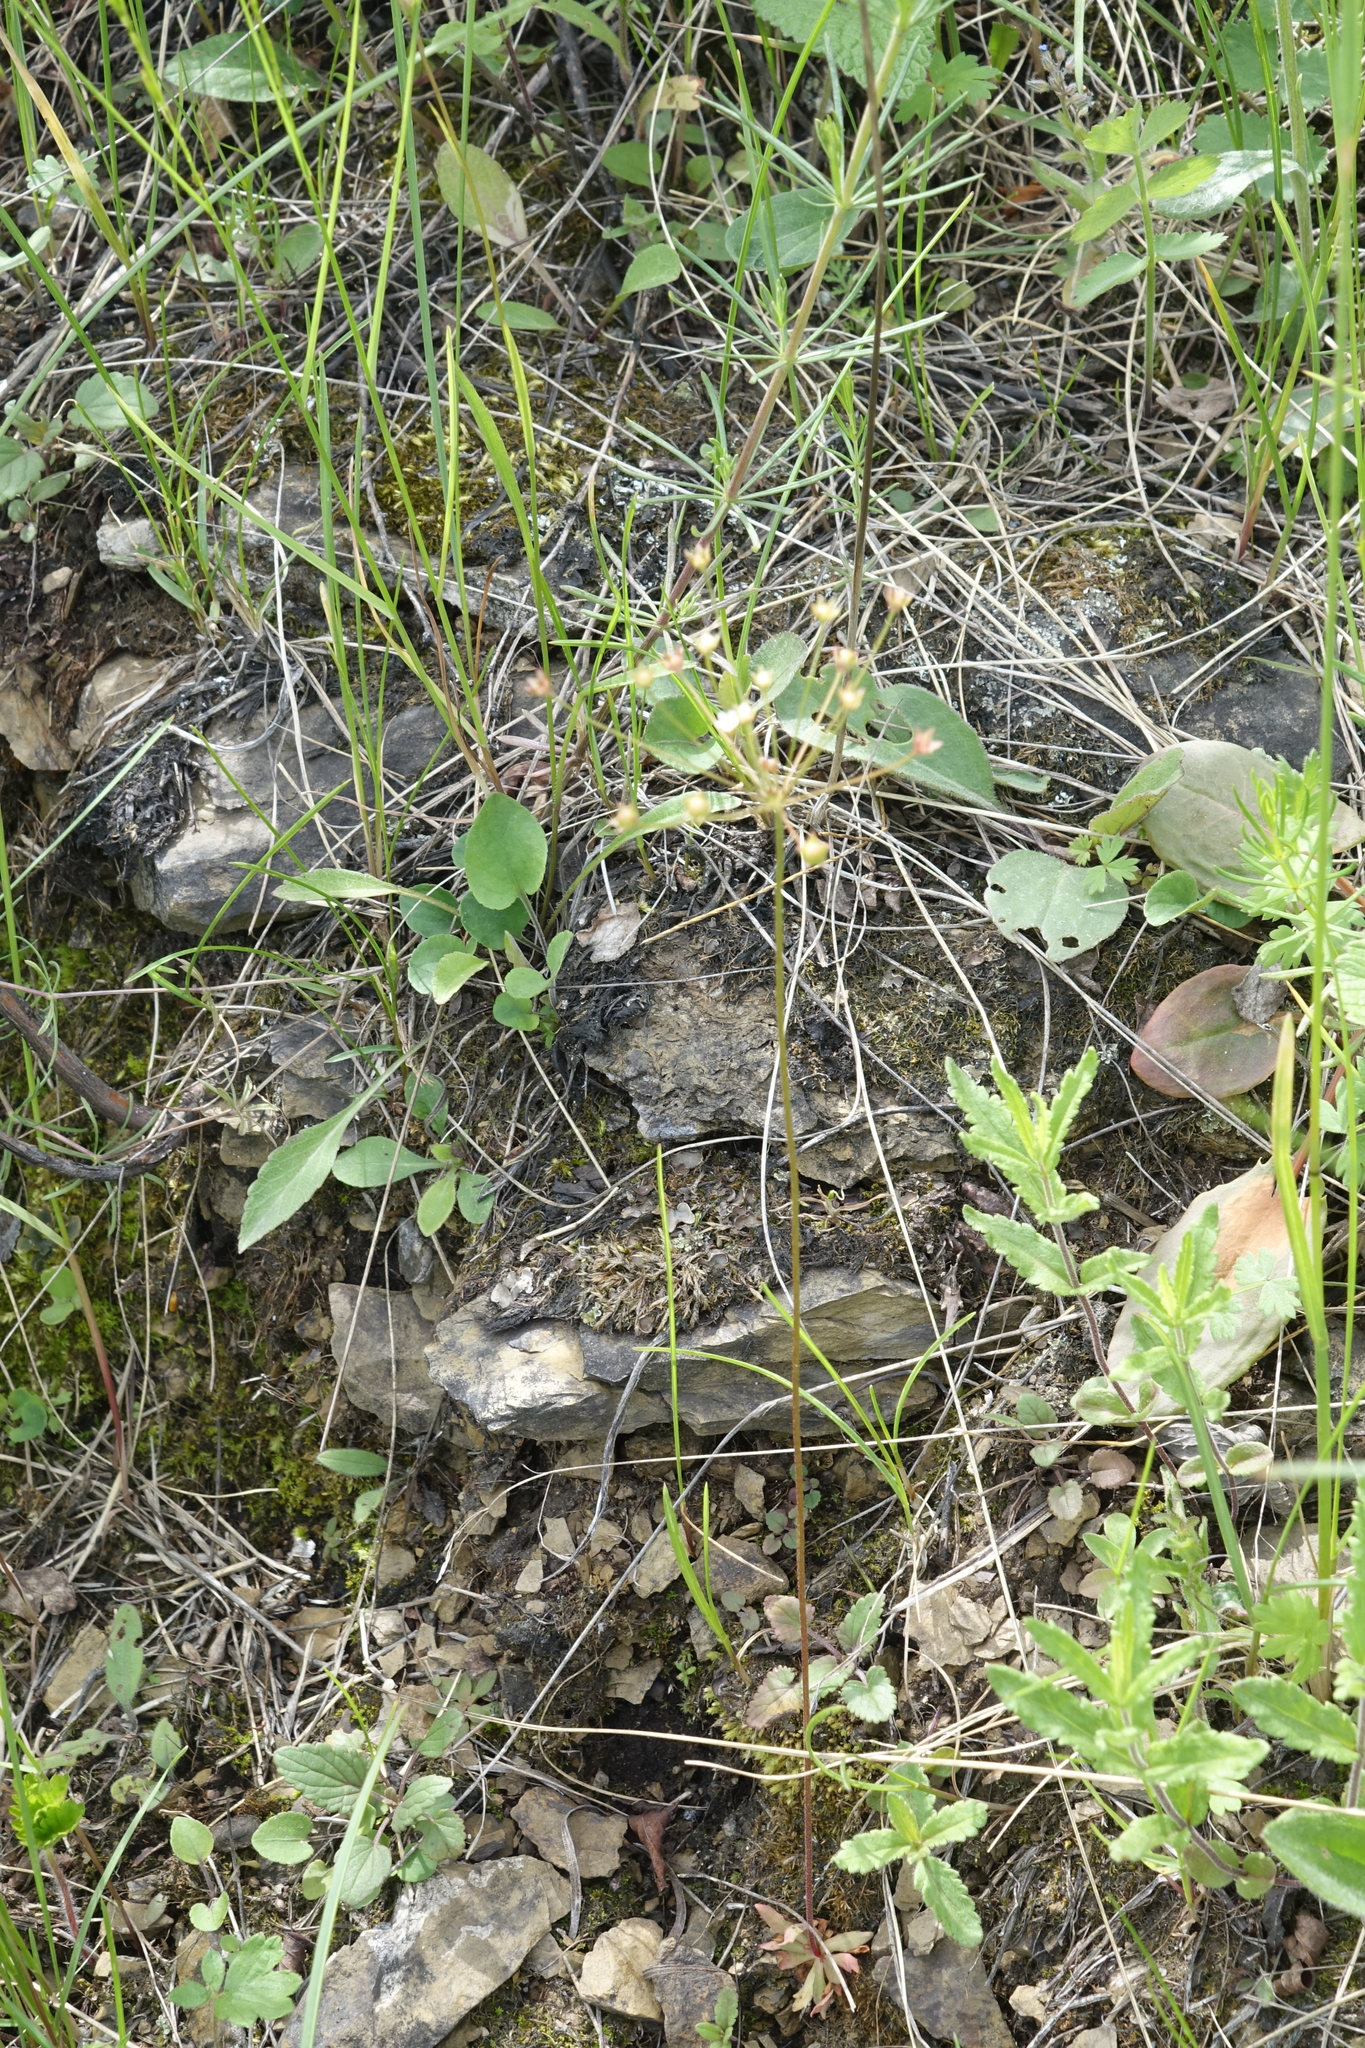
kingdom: Plantae
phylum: Tracheophyta
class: Magnoliopsida
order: Ericales
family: Primulaceae
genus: Androsace
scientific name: Androsace septentrionalis
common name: Hairy northern fairy-candelabra
